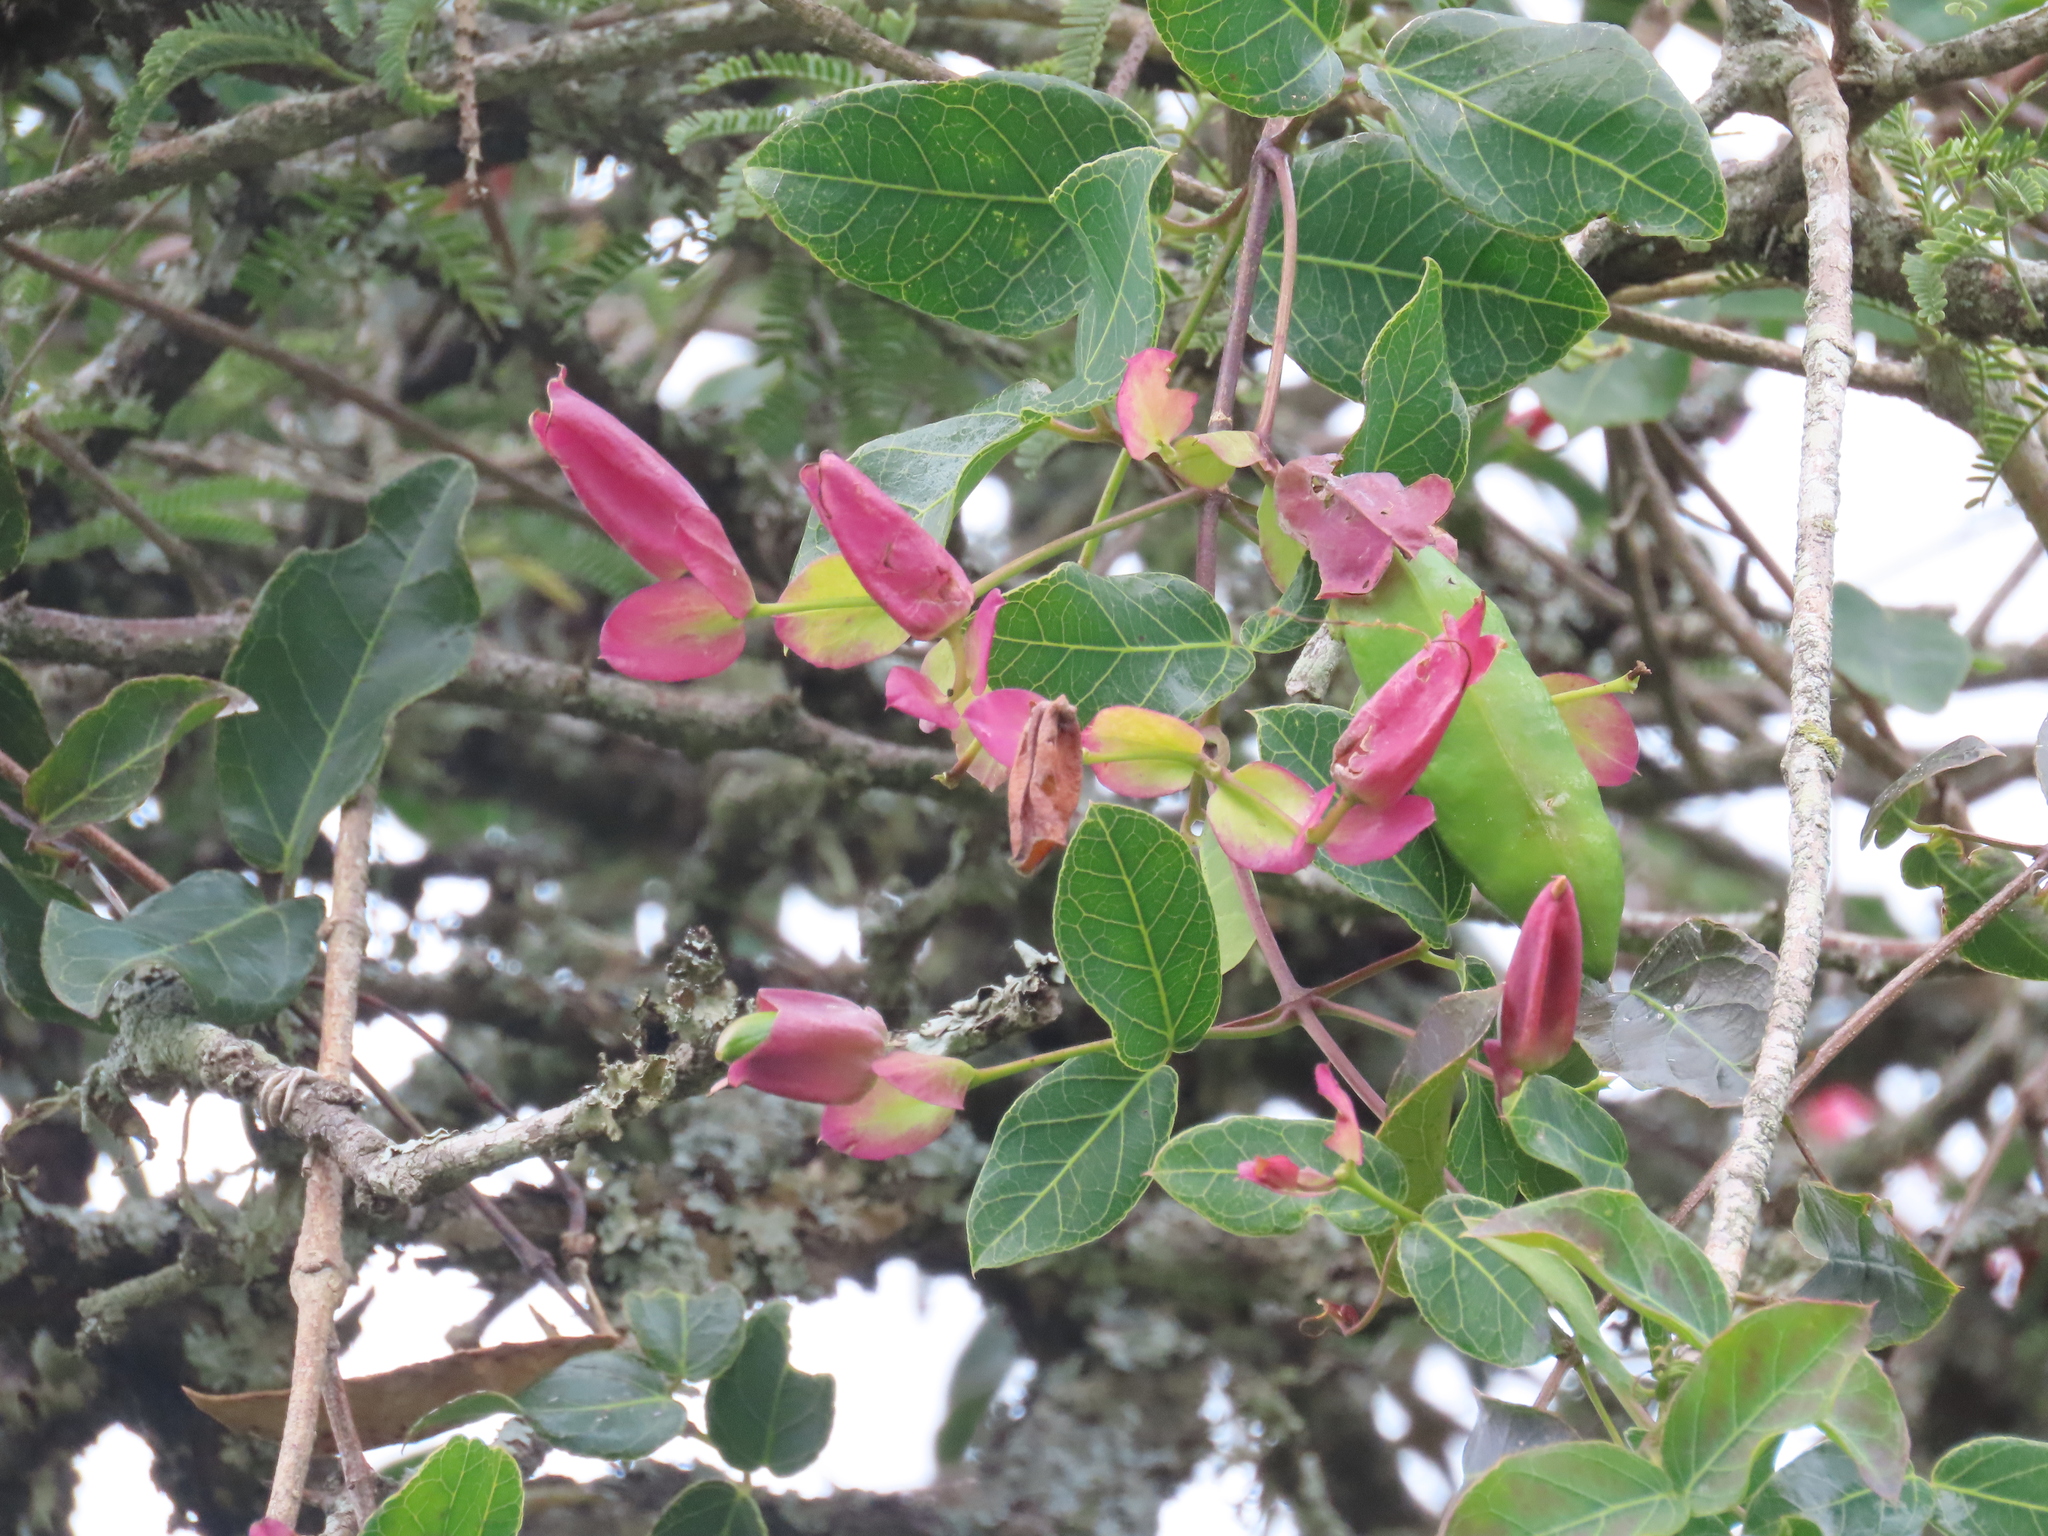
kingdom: Plantae
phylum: Tracheophyta
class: Magnoliopsida
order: Lamiales
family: Bignoniaceae
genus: Dolichandra
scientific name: Dolichandra cynanchoides
